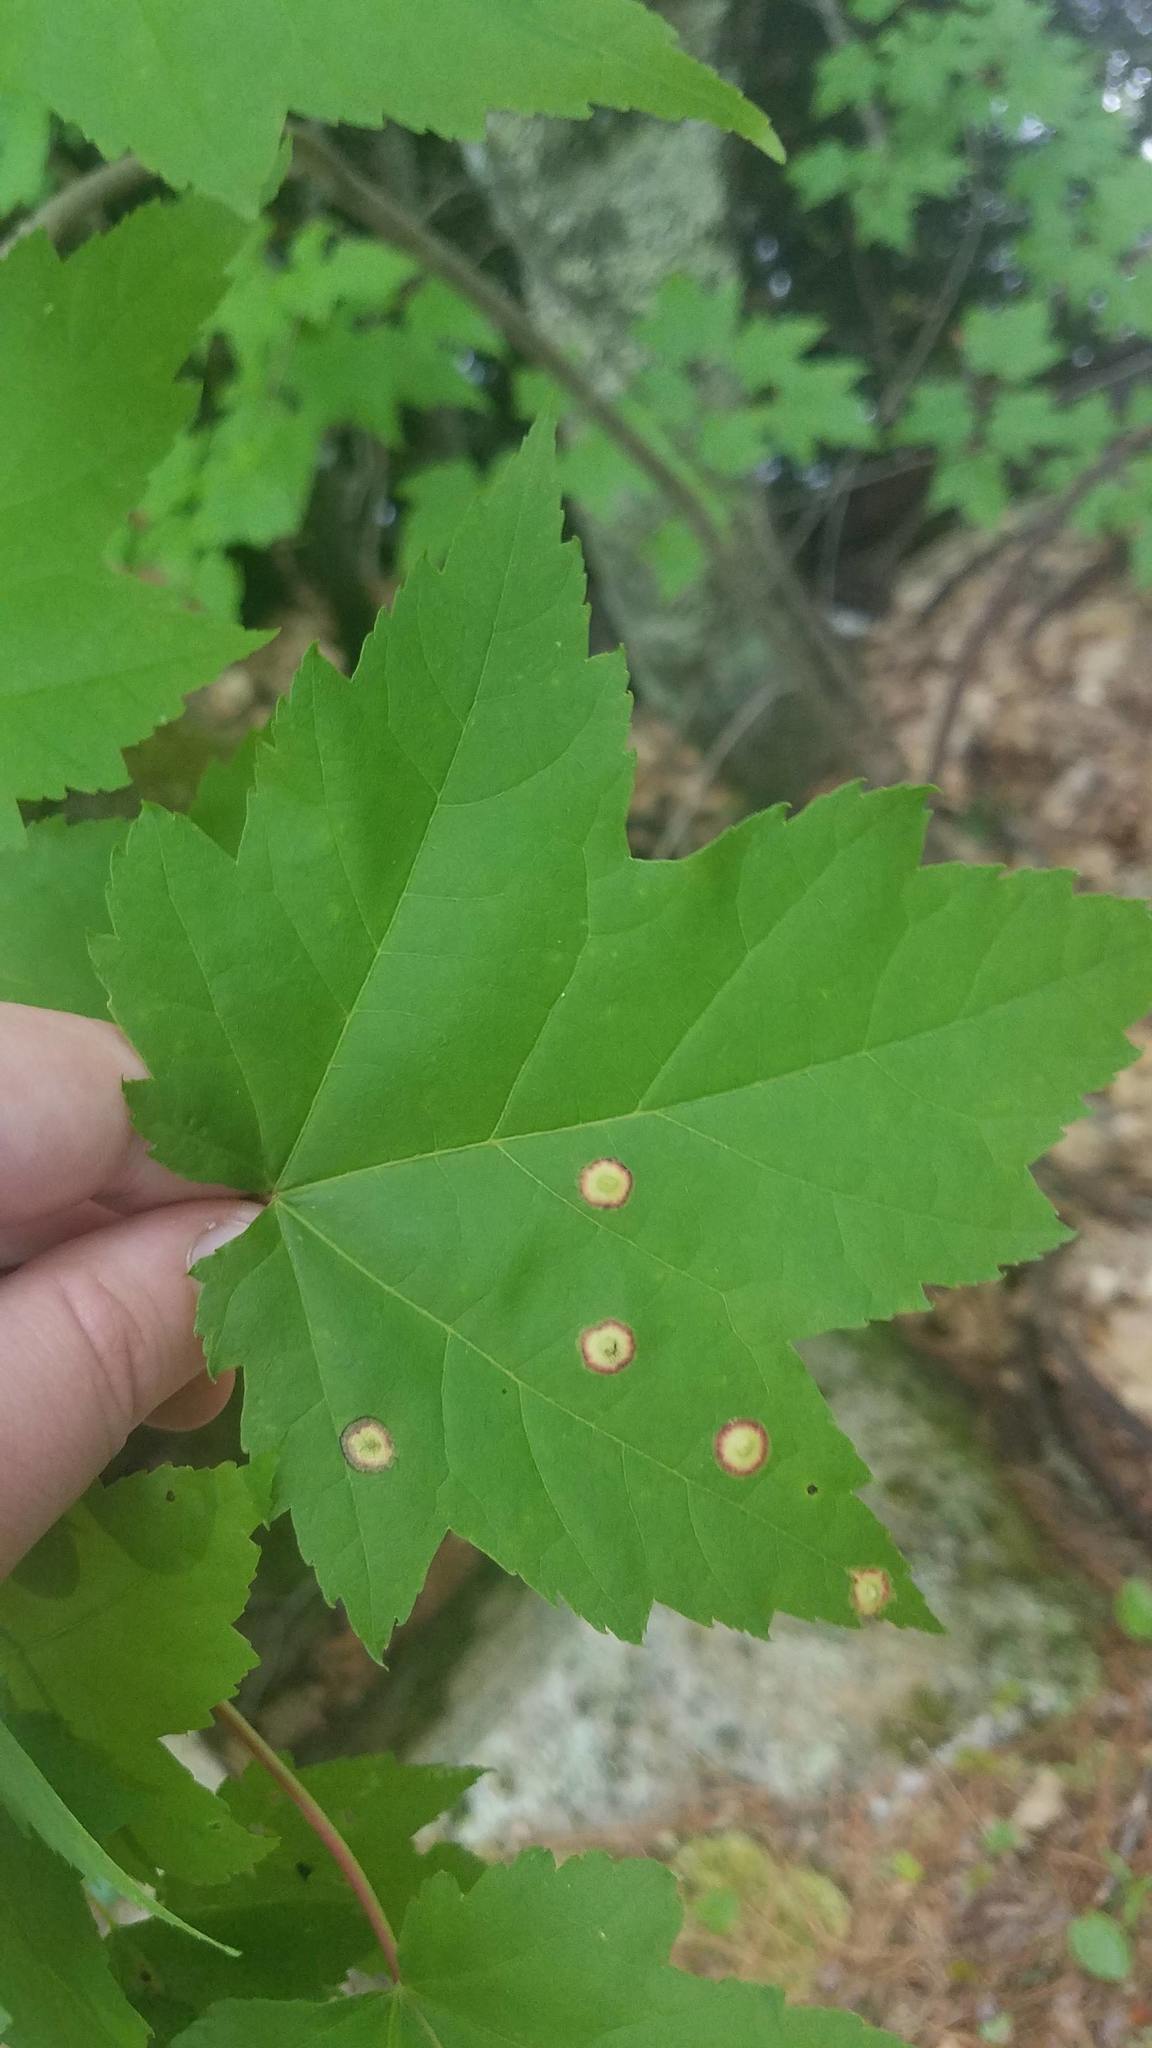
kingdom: Animalia
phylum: Arthropoda
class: Insecta
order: Diptera
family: Cecidomyiidae
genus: Acericecis
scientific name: Acericecis ocellaris
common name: Ocellate gall midge
